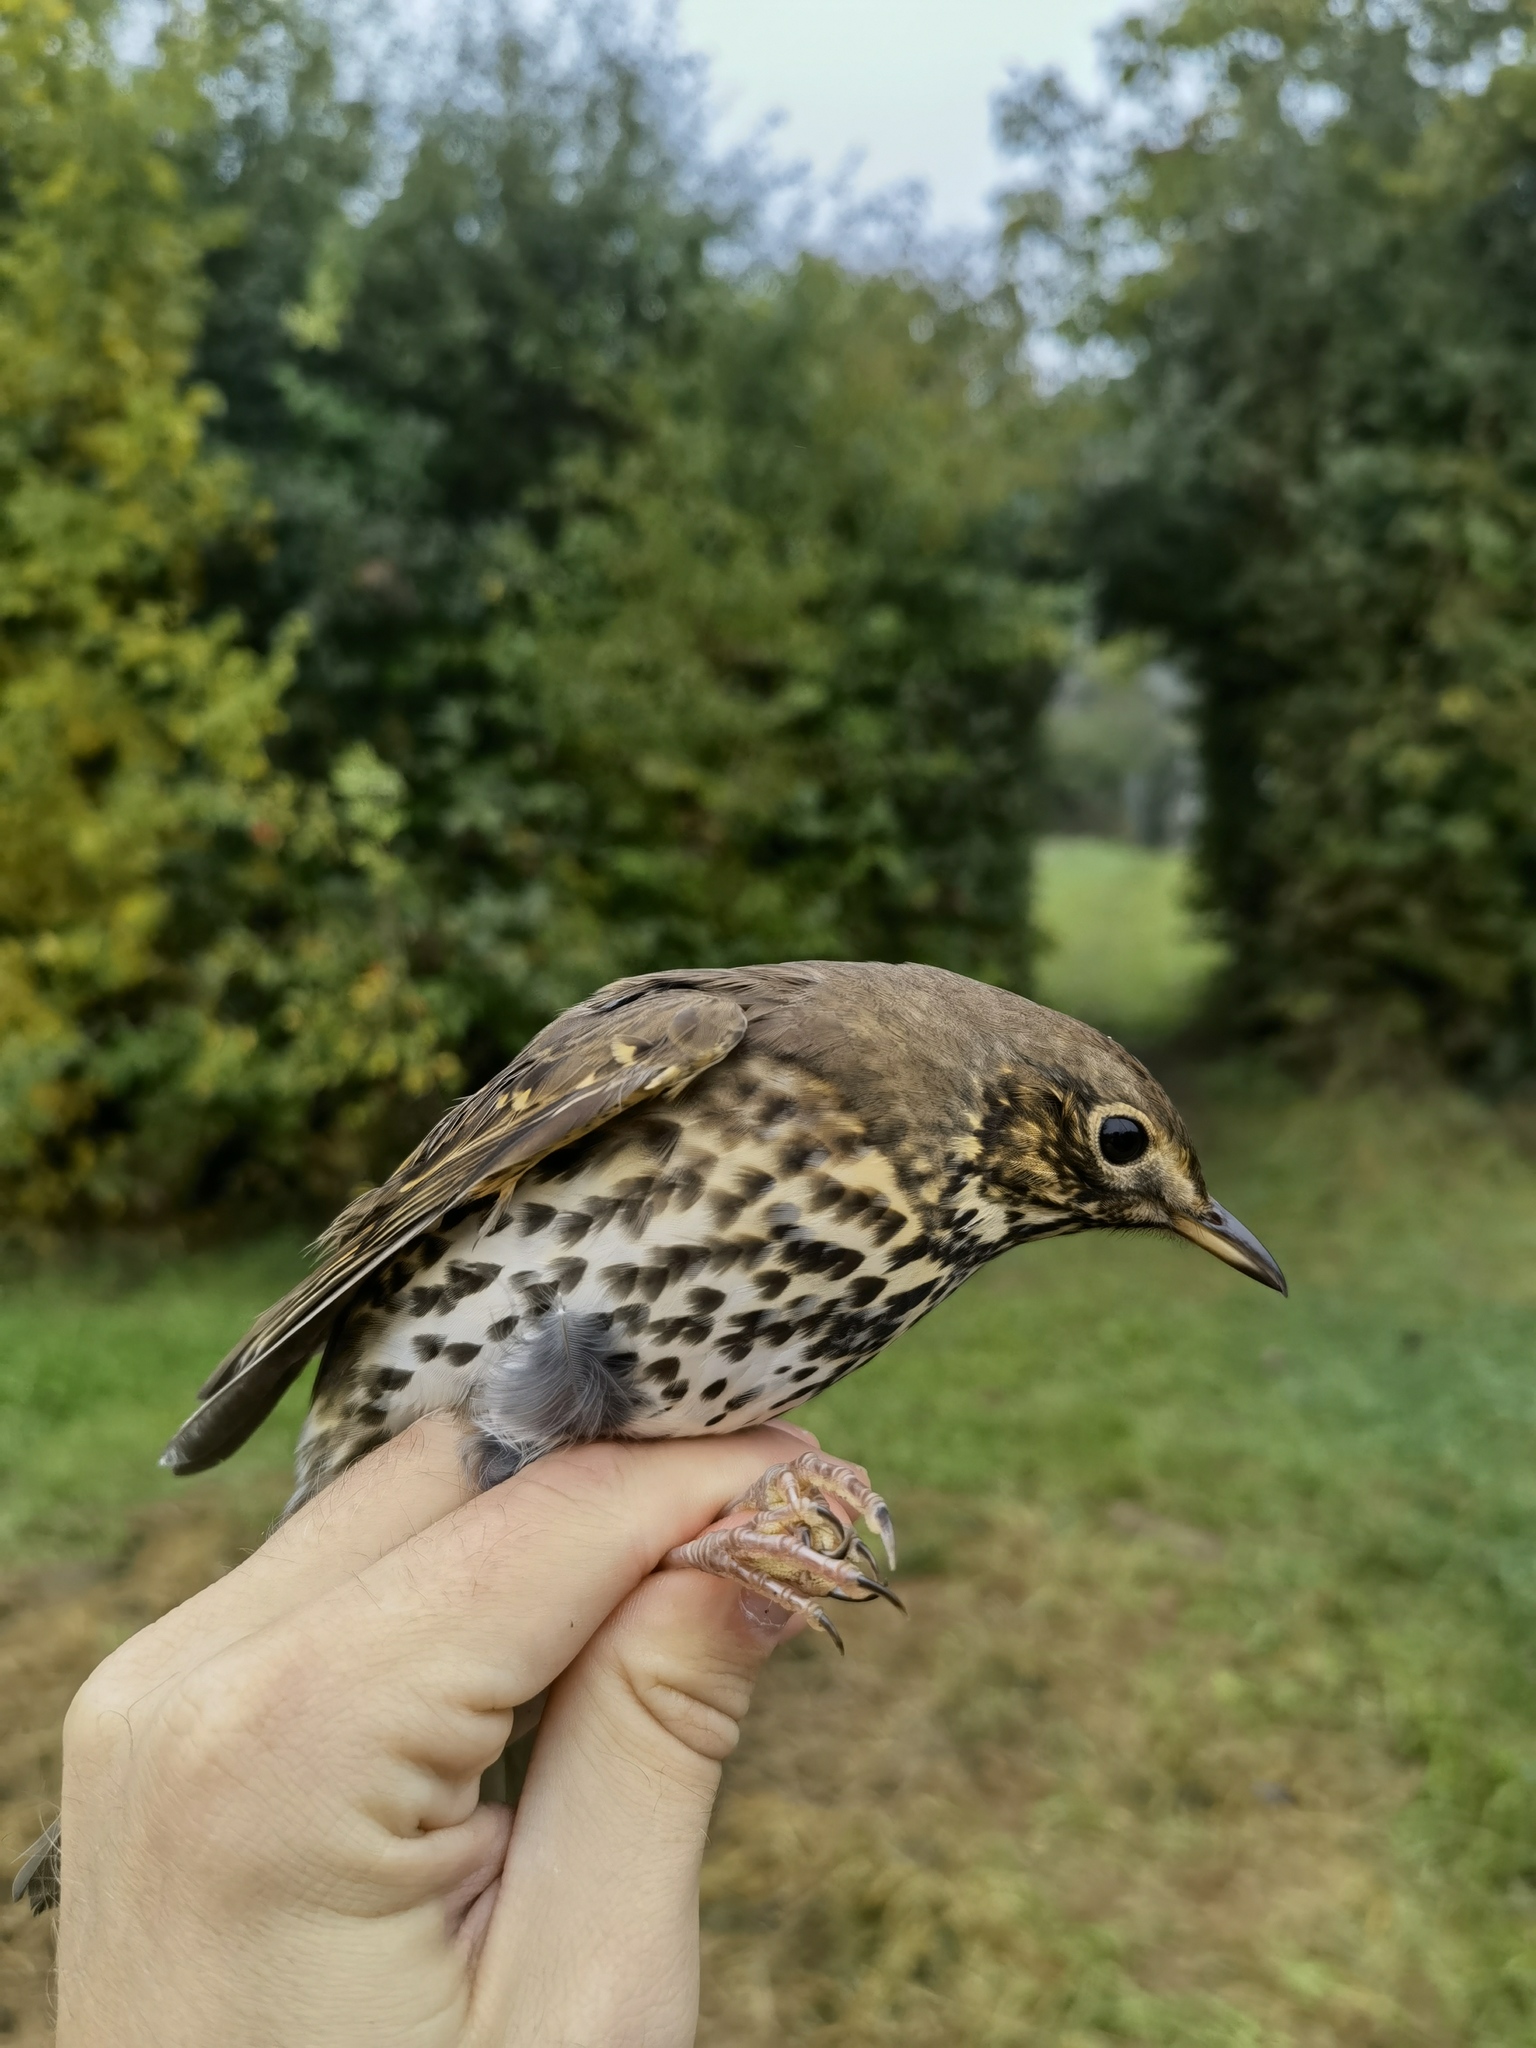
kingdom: Animalia
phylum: Chordata
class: Aves
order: Passeriformes
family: Turdidae
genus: Turdus
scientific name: Turdus philomelos
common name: Song thrush
